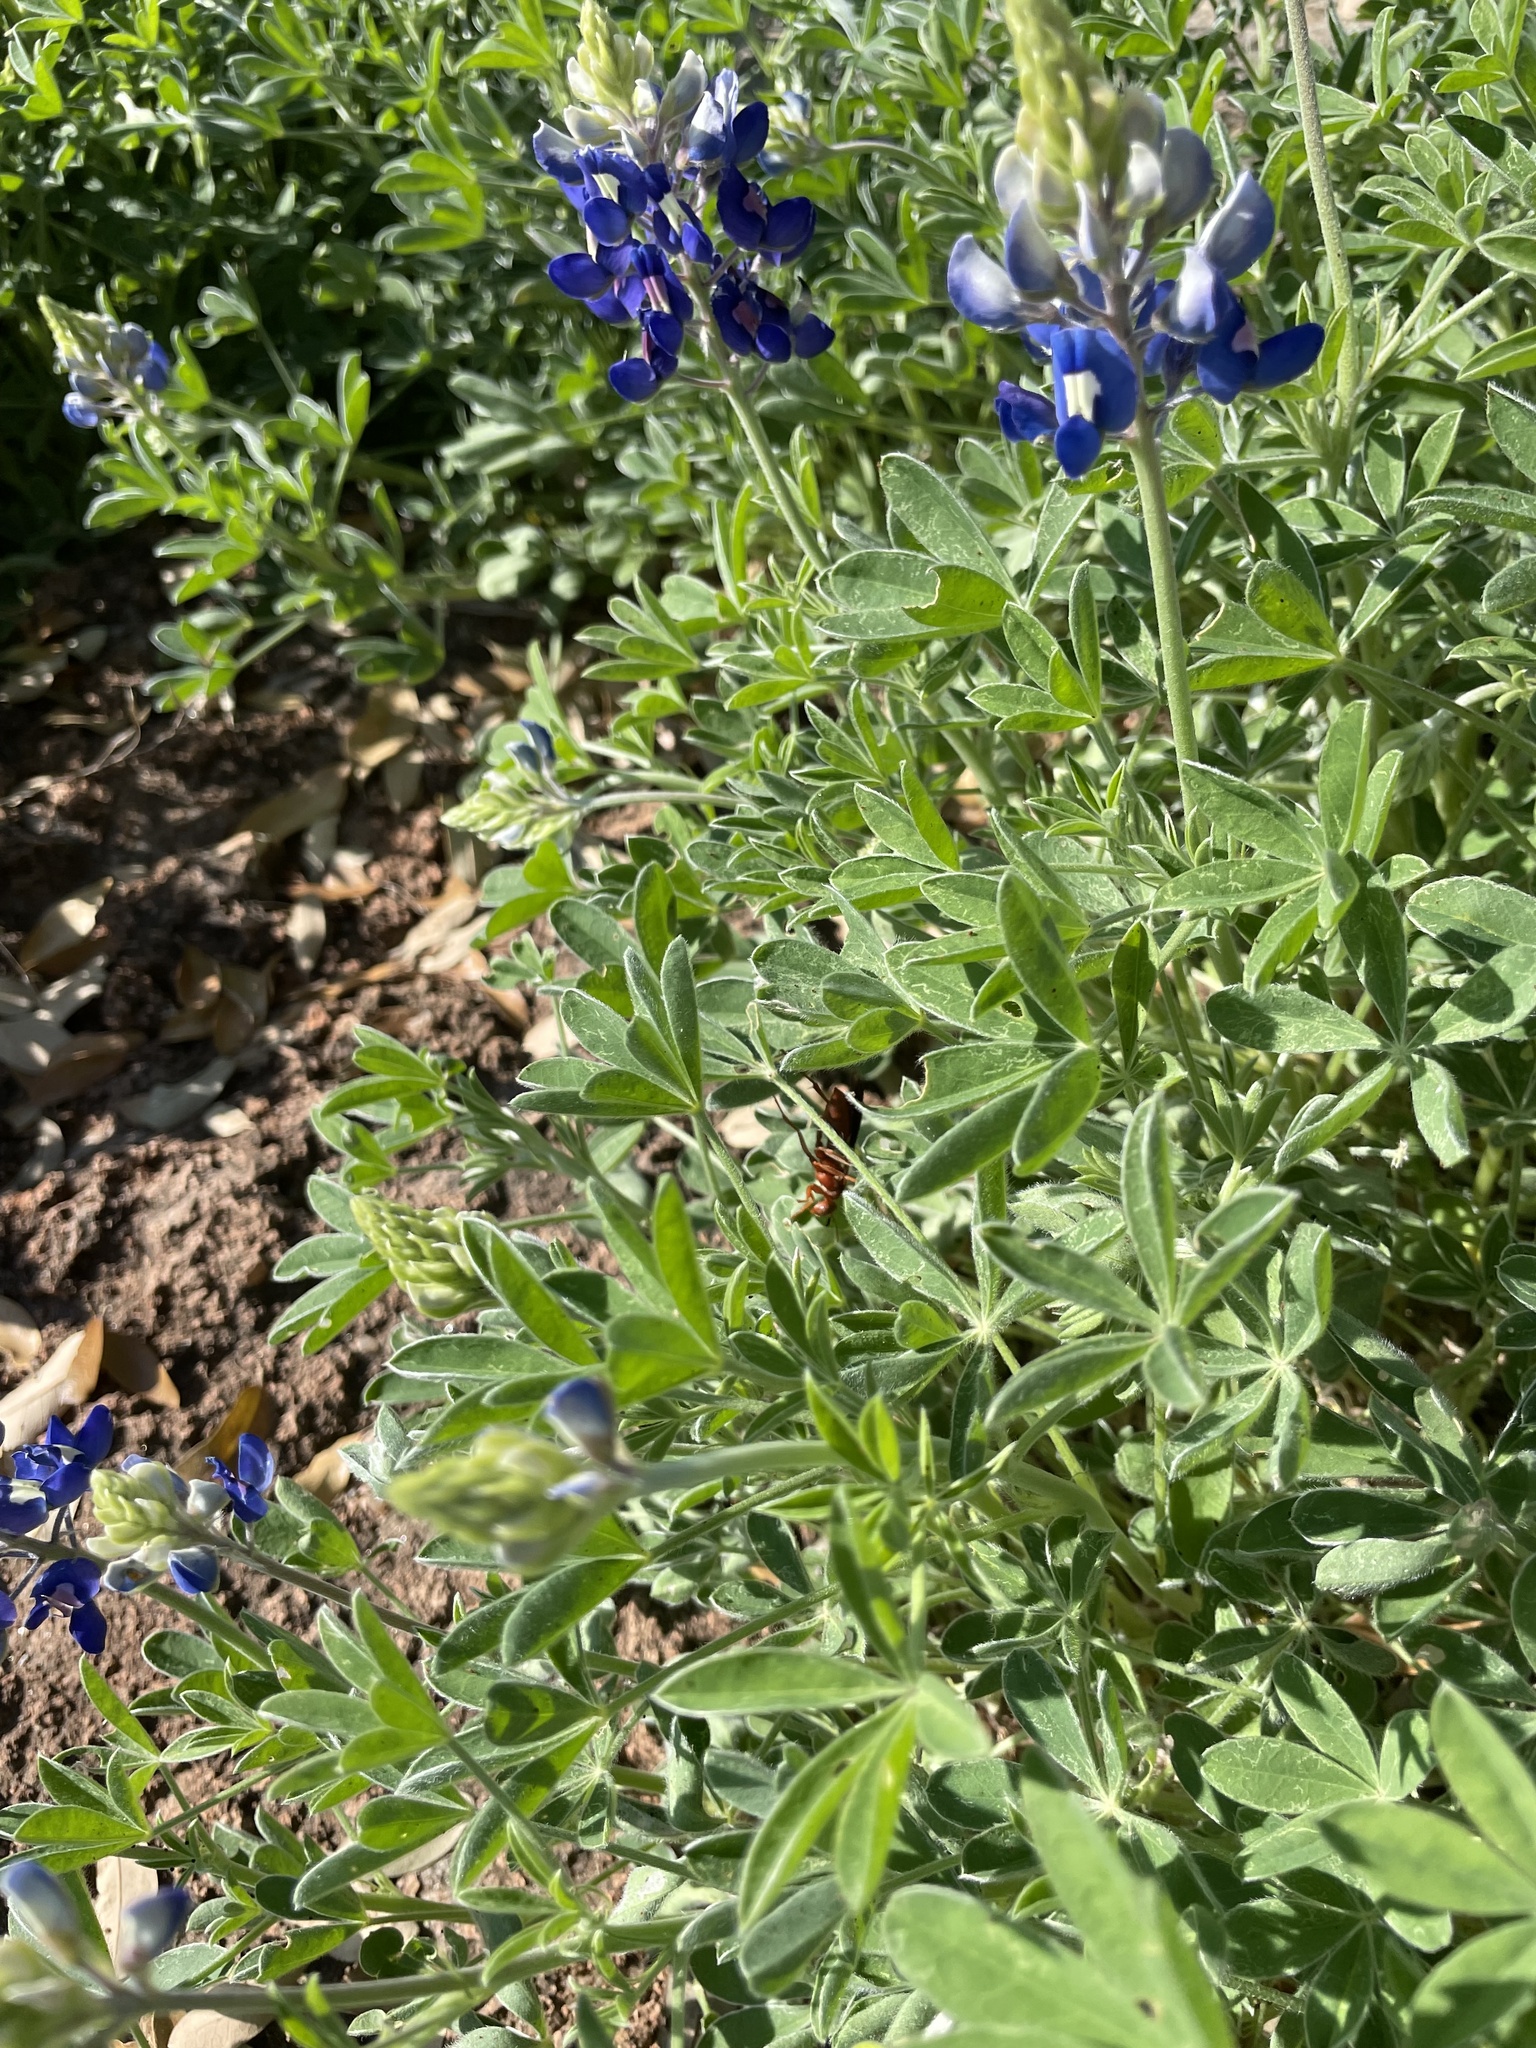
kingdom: Plantae
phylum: Tracheophyta
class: Magnoliopsida
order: Fabales
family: Fabaceae
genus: Lupinus
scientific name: Lupinus texensis
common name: Texas bluebonnet
